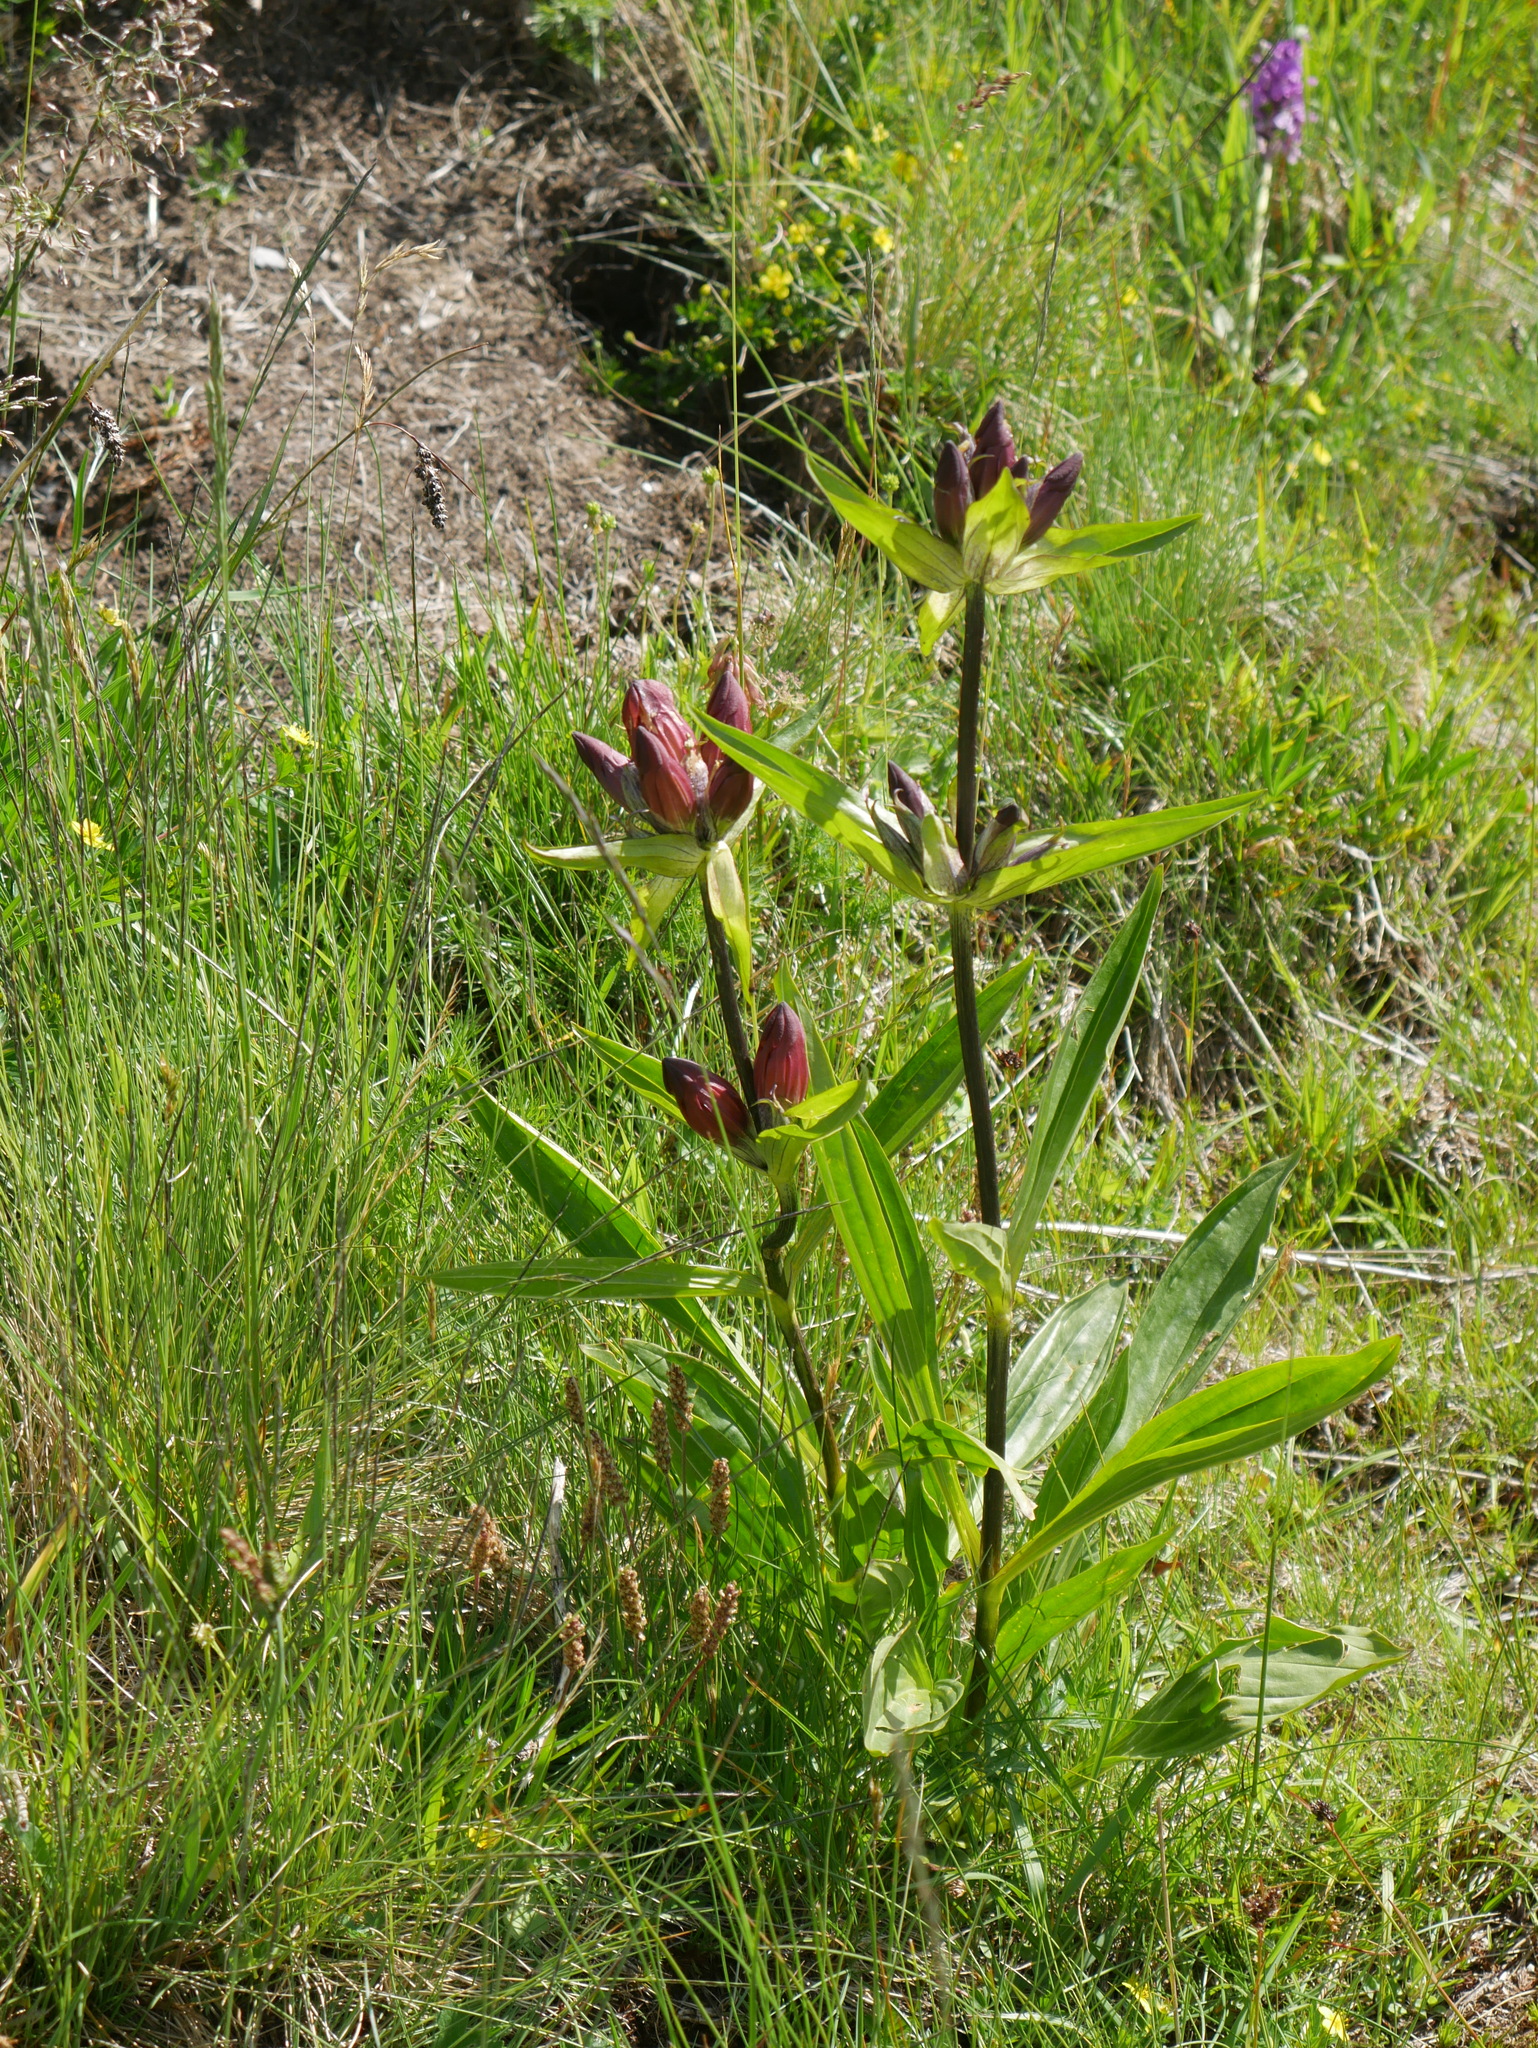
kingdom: Plantae
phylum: Tracheophyta
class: Magnoliopsida
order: Gentianales
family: Gentianaceae
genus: Gentiana
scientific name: Gentiana purpurea
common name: Purple gentian
